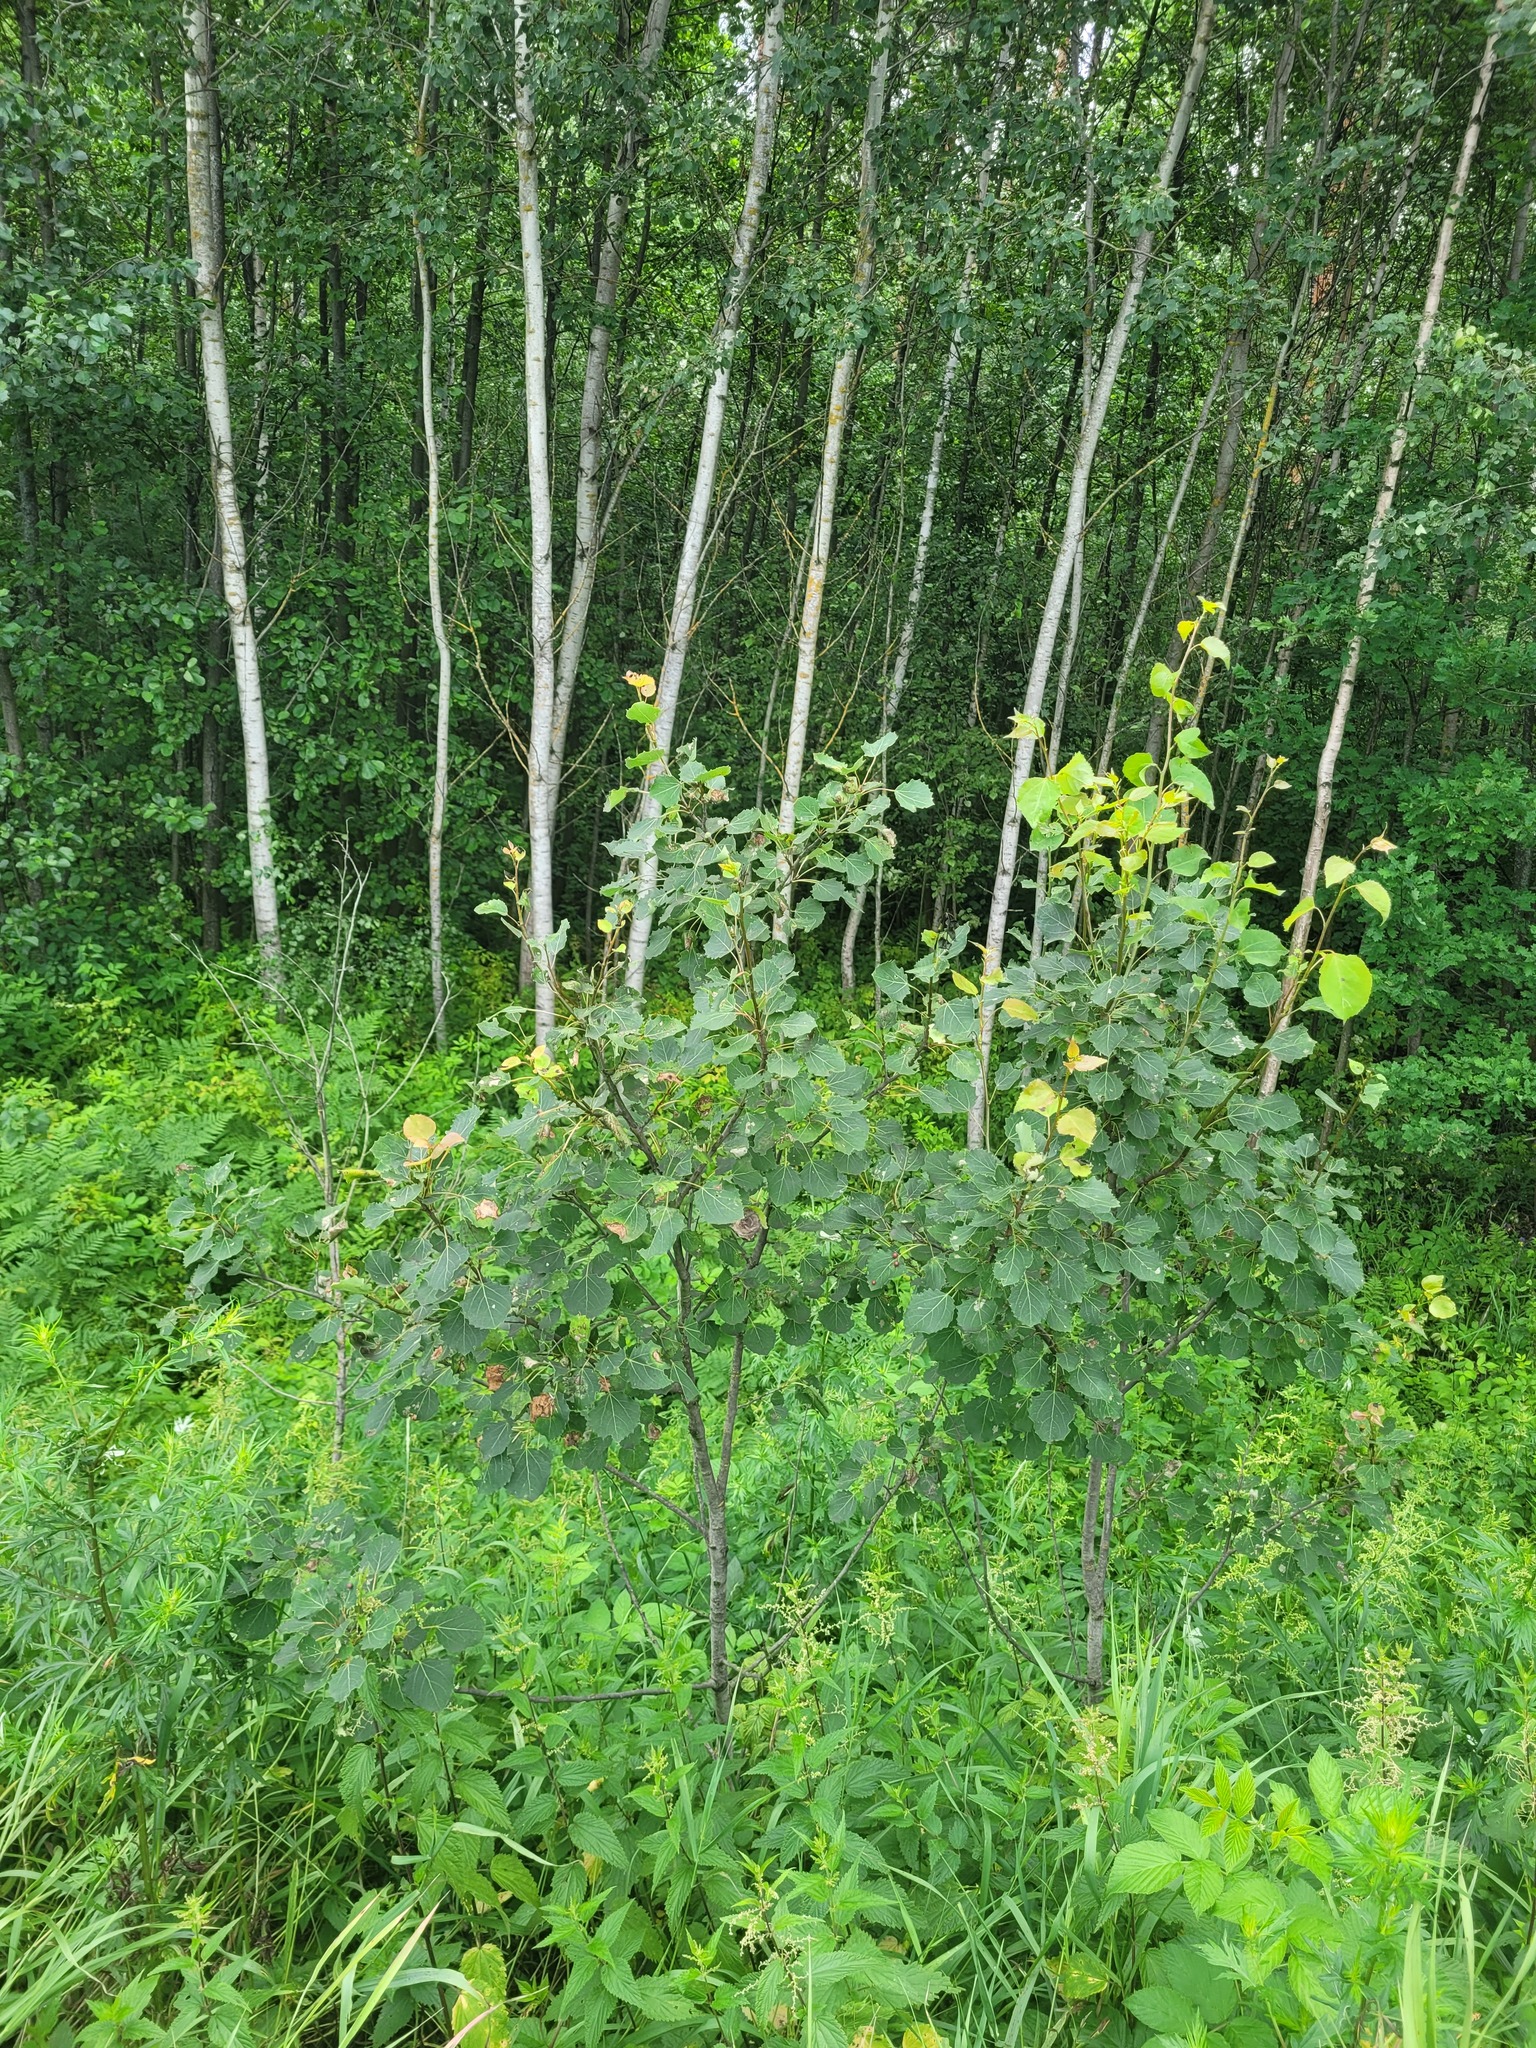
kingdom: Plantae
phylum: Tracheophyta
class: Magnoliopsida
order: Malpighiales
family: Salicaceae
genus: Populus
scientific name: Populus tremula
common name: European aspen
